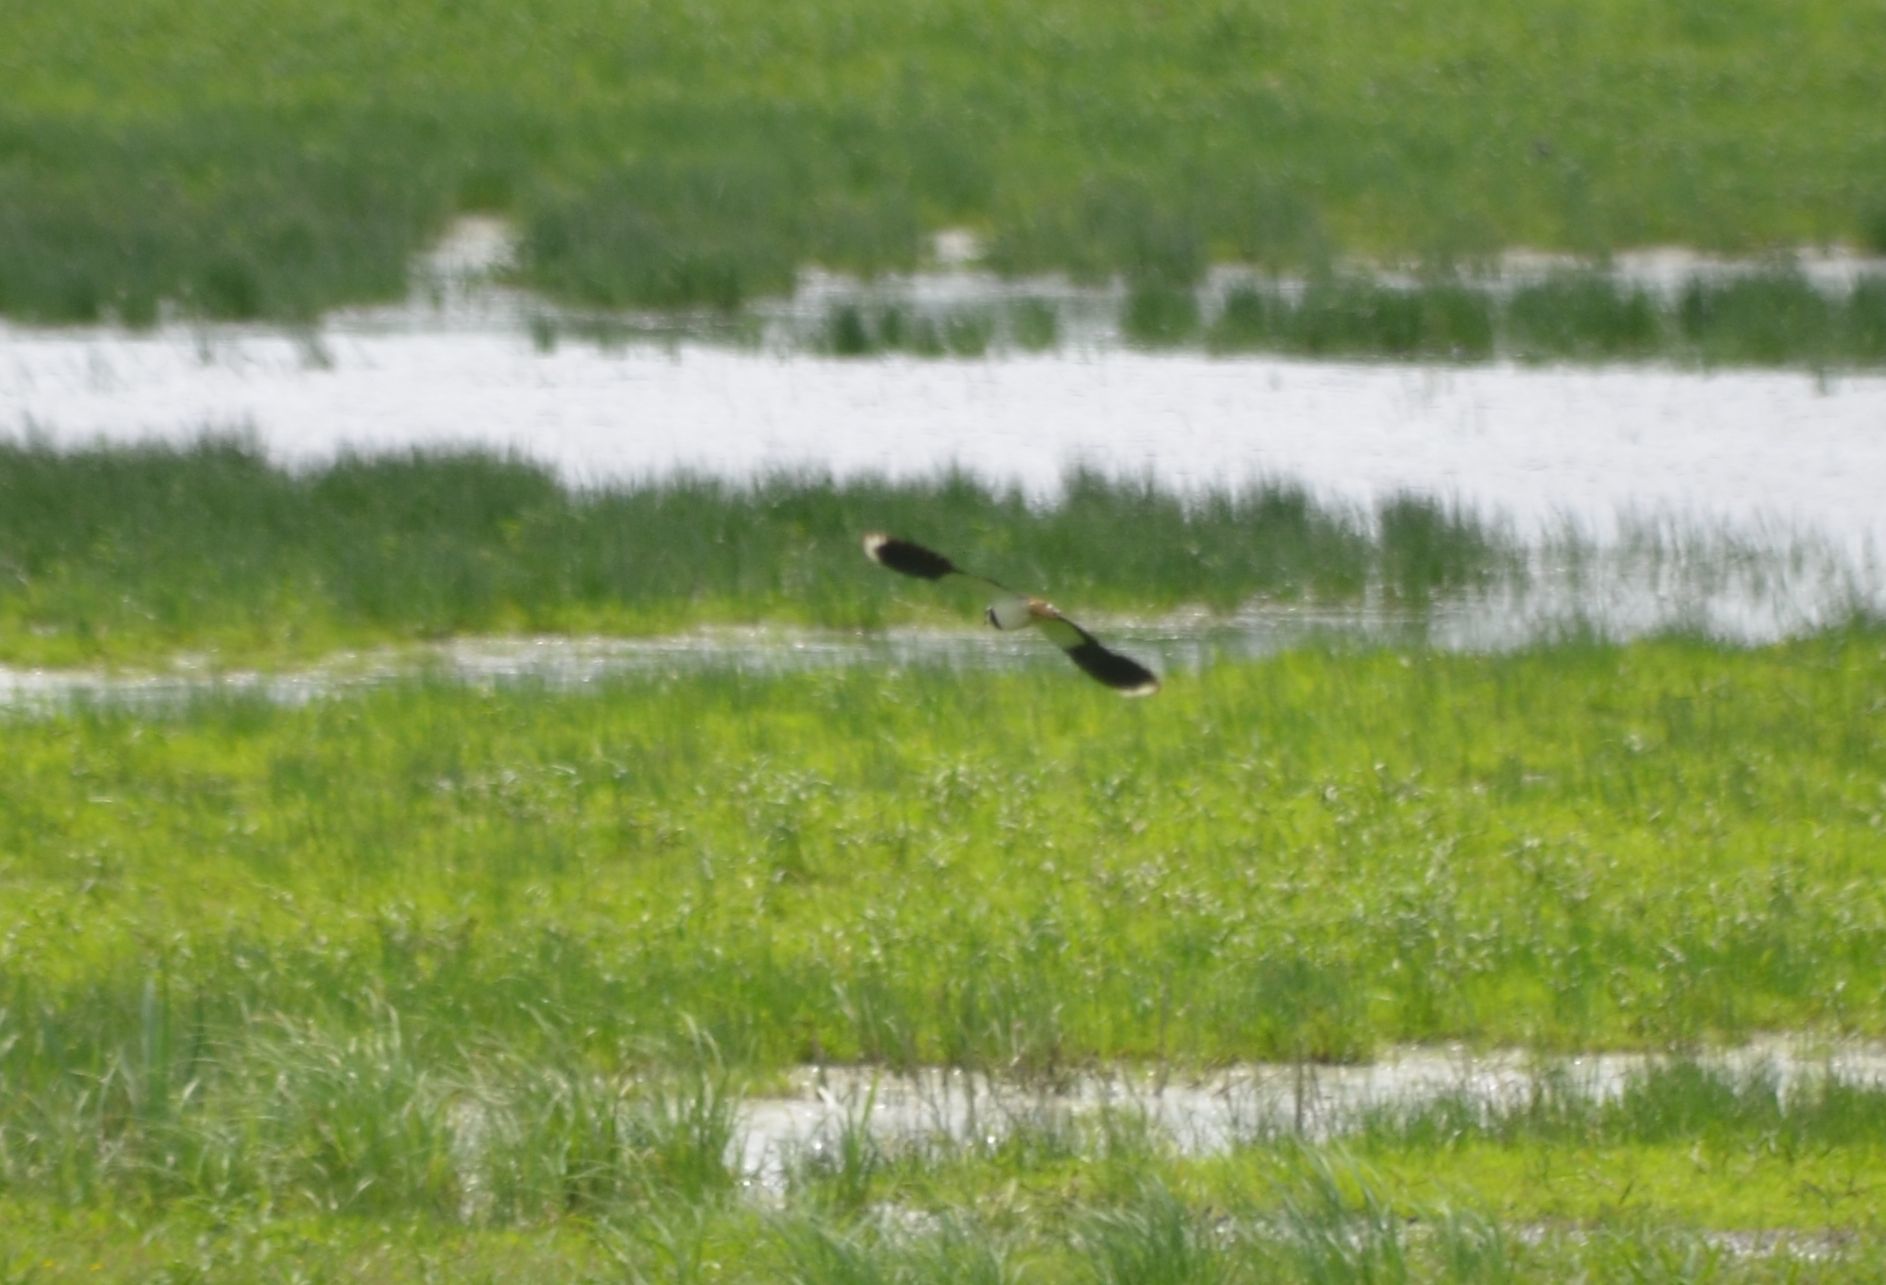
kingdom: Animalia
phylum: Chordata
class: Aves
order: Charadriiformes
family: Charadriidae
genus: Vanellus
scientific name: Vanellus vanellus
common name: Northern lapwing
